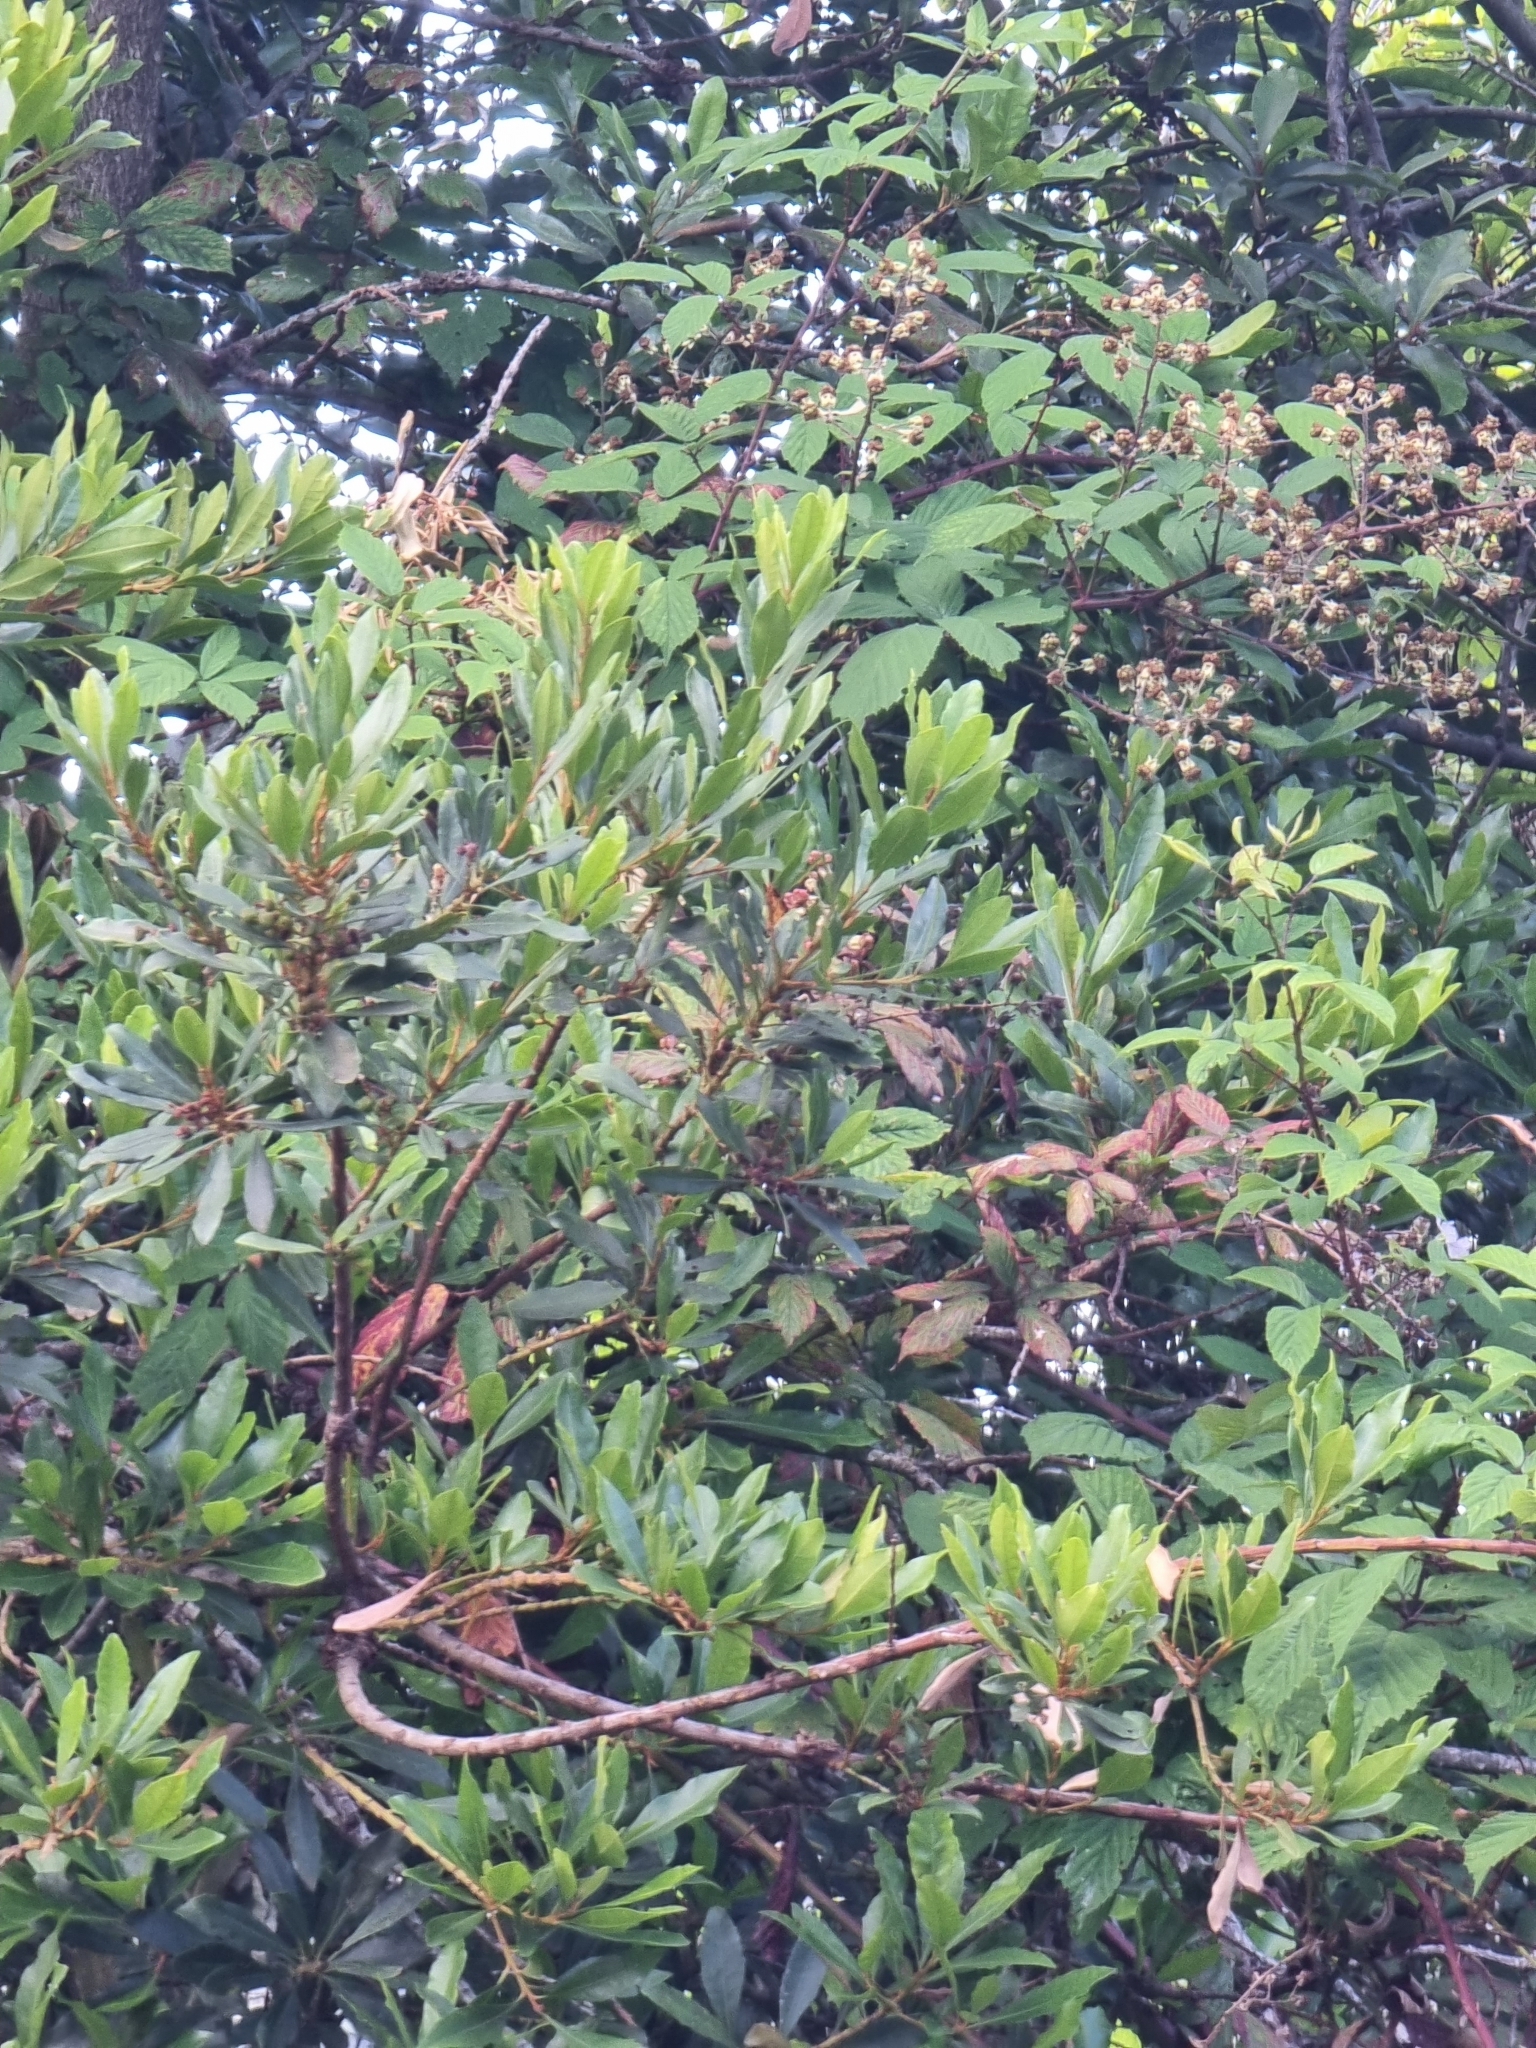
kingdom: Plantae
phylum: Tracheophyta
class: Magnoliopsida
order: Fagales
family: Myricaceae
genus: Morella
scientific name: Morella faya
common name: Firetree
